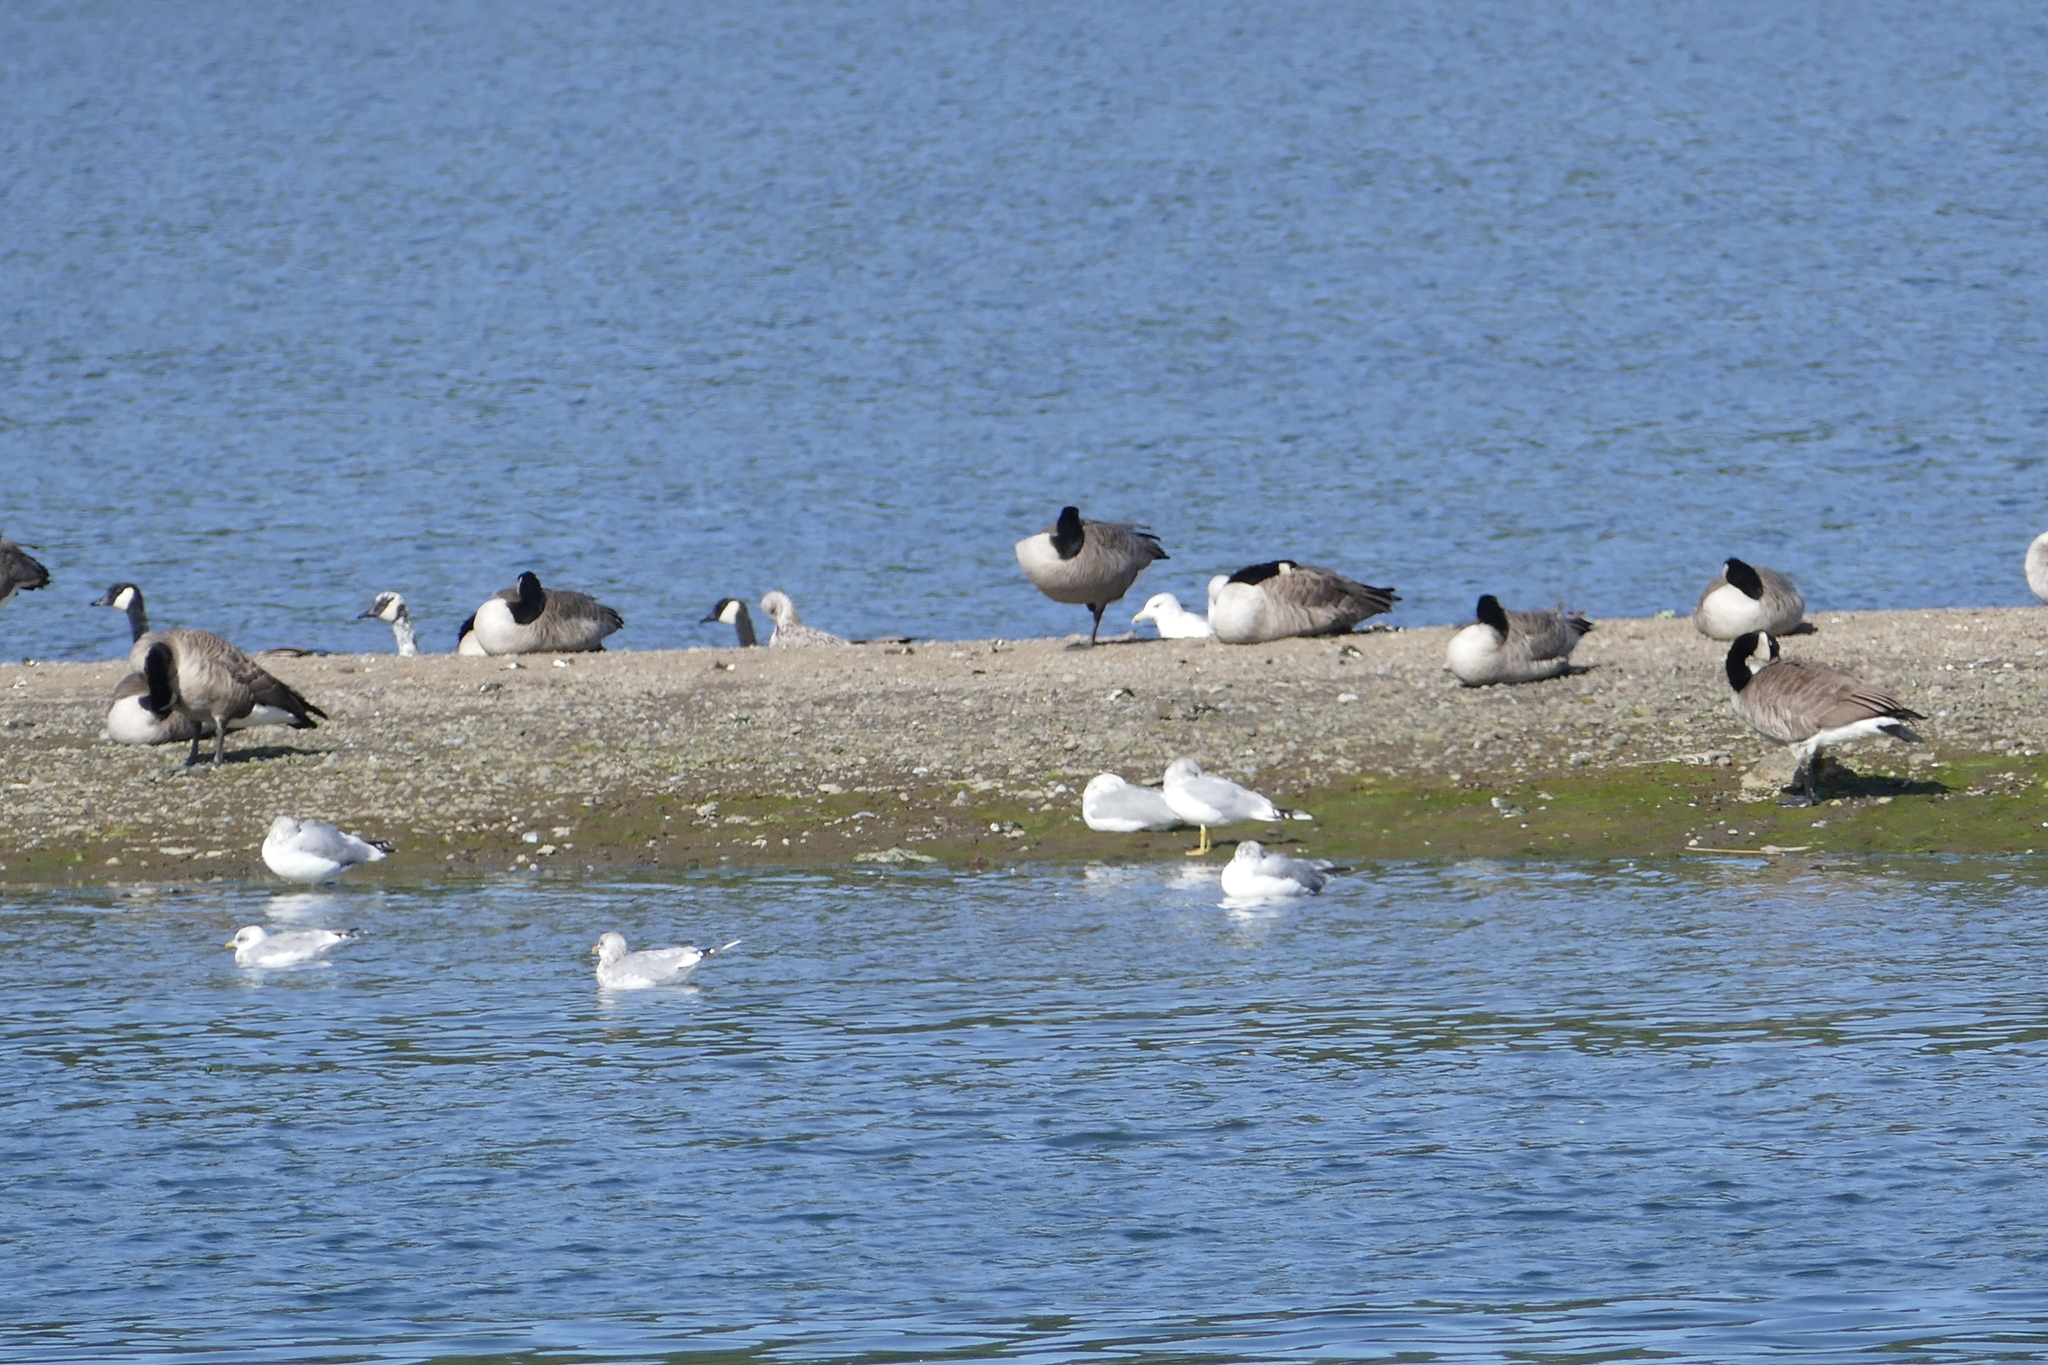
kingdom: Animalia
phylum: Chordata
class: Aves
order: Anseriformes
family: Anatidae
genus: Branta
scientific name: Branta canadensis
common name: Canada goose
